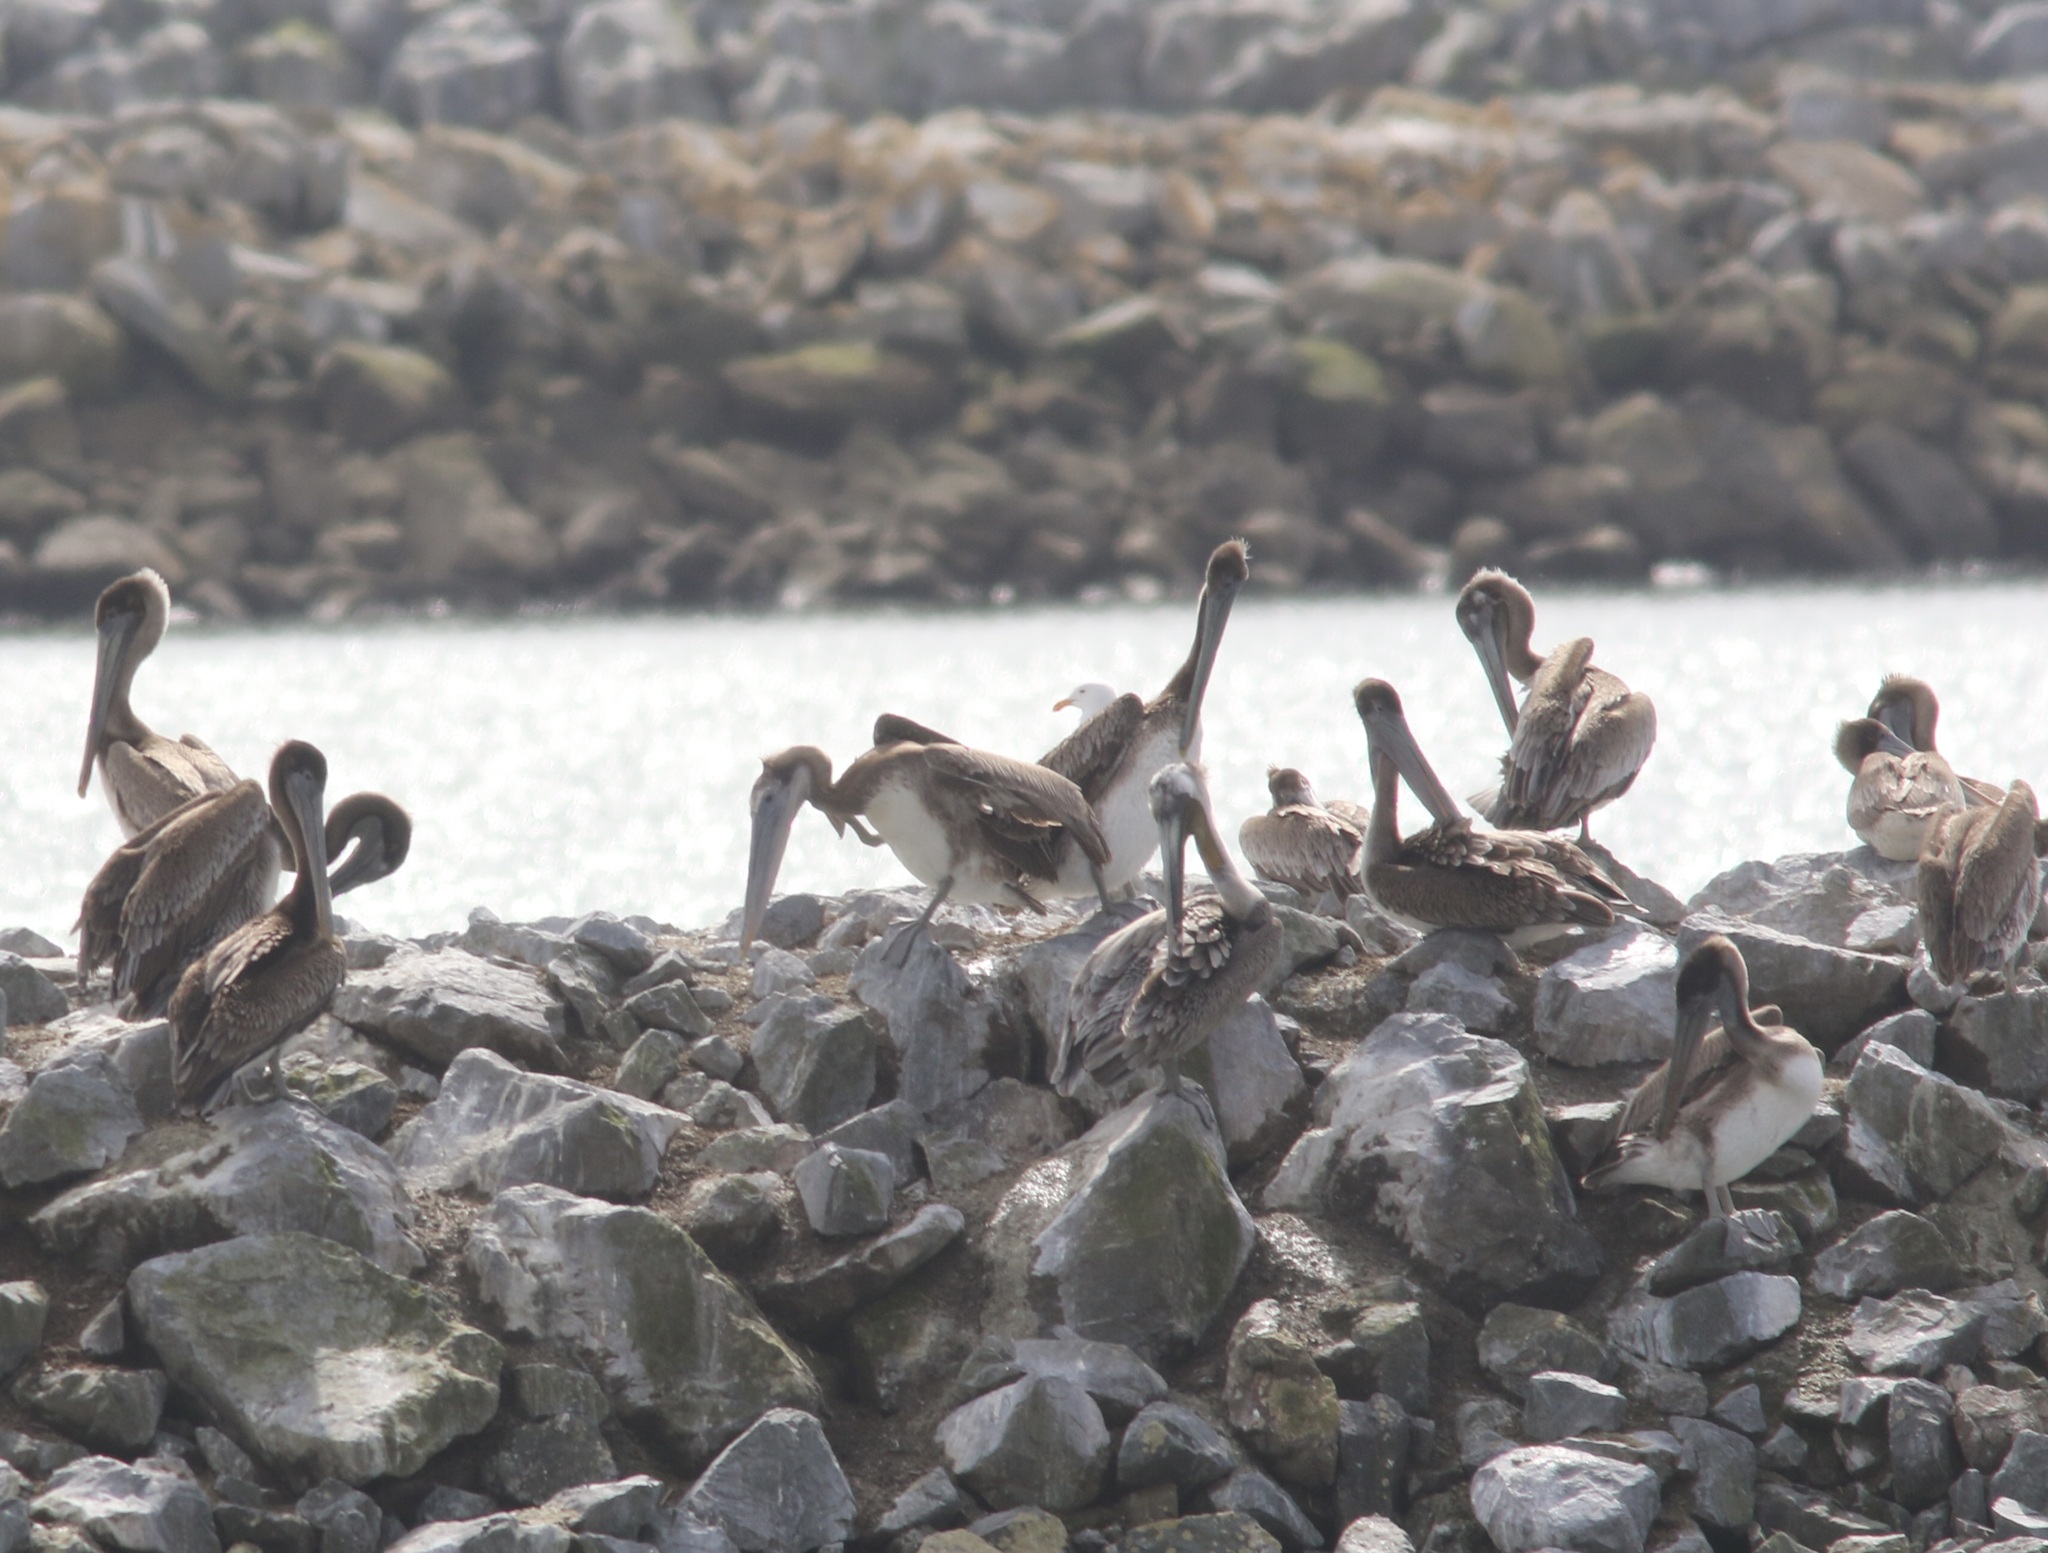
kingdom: Animalia
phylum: Chordata
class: Aves
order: Pelecaniformes
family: Pelecanidae
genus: Pelecanus
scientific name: Pelecanus occidentalis
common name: Brown pelican
